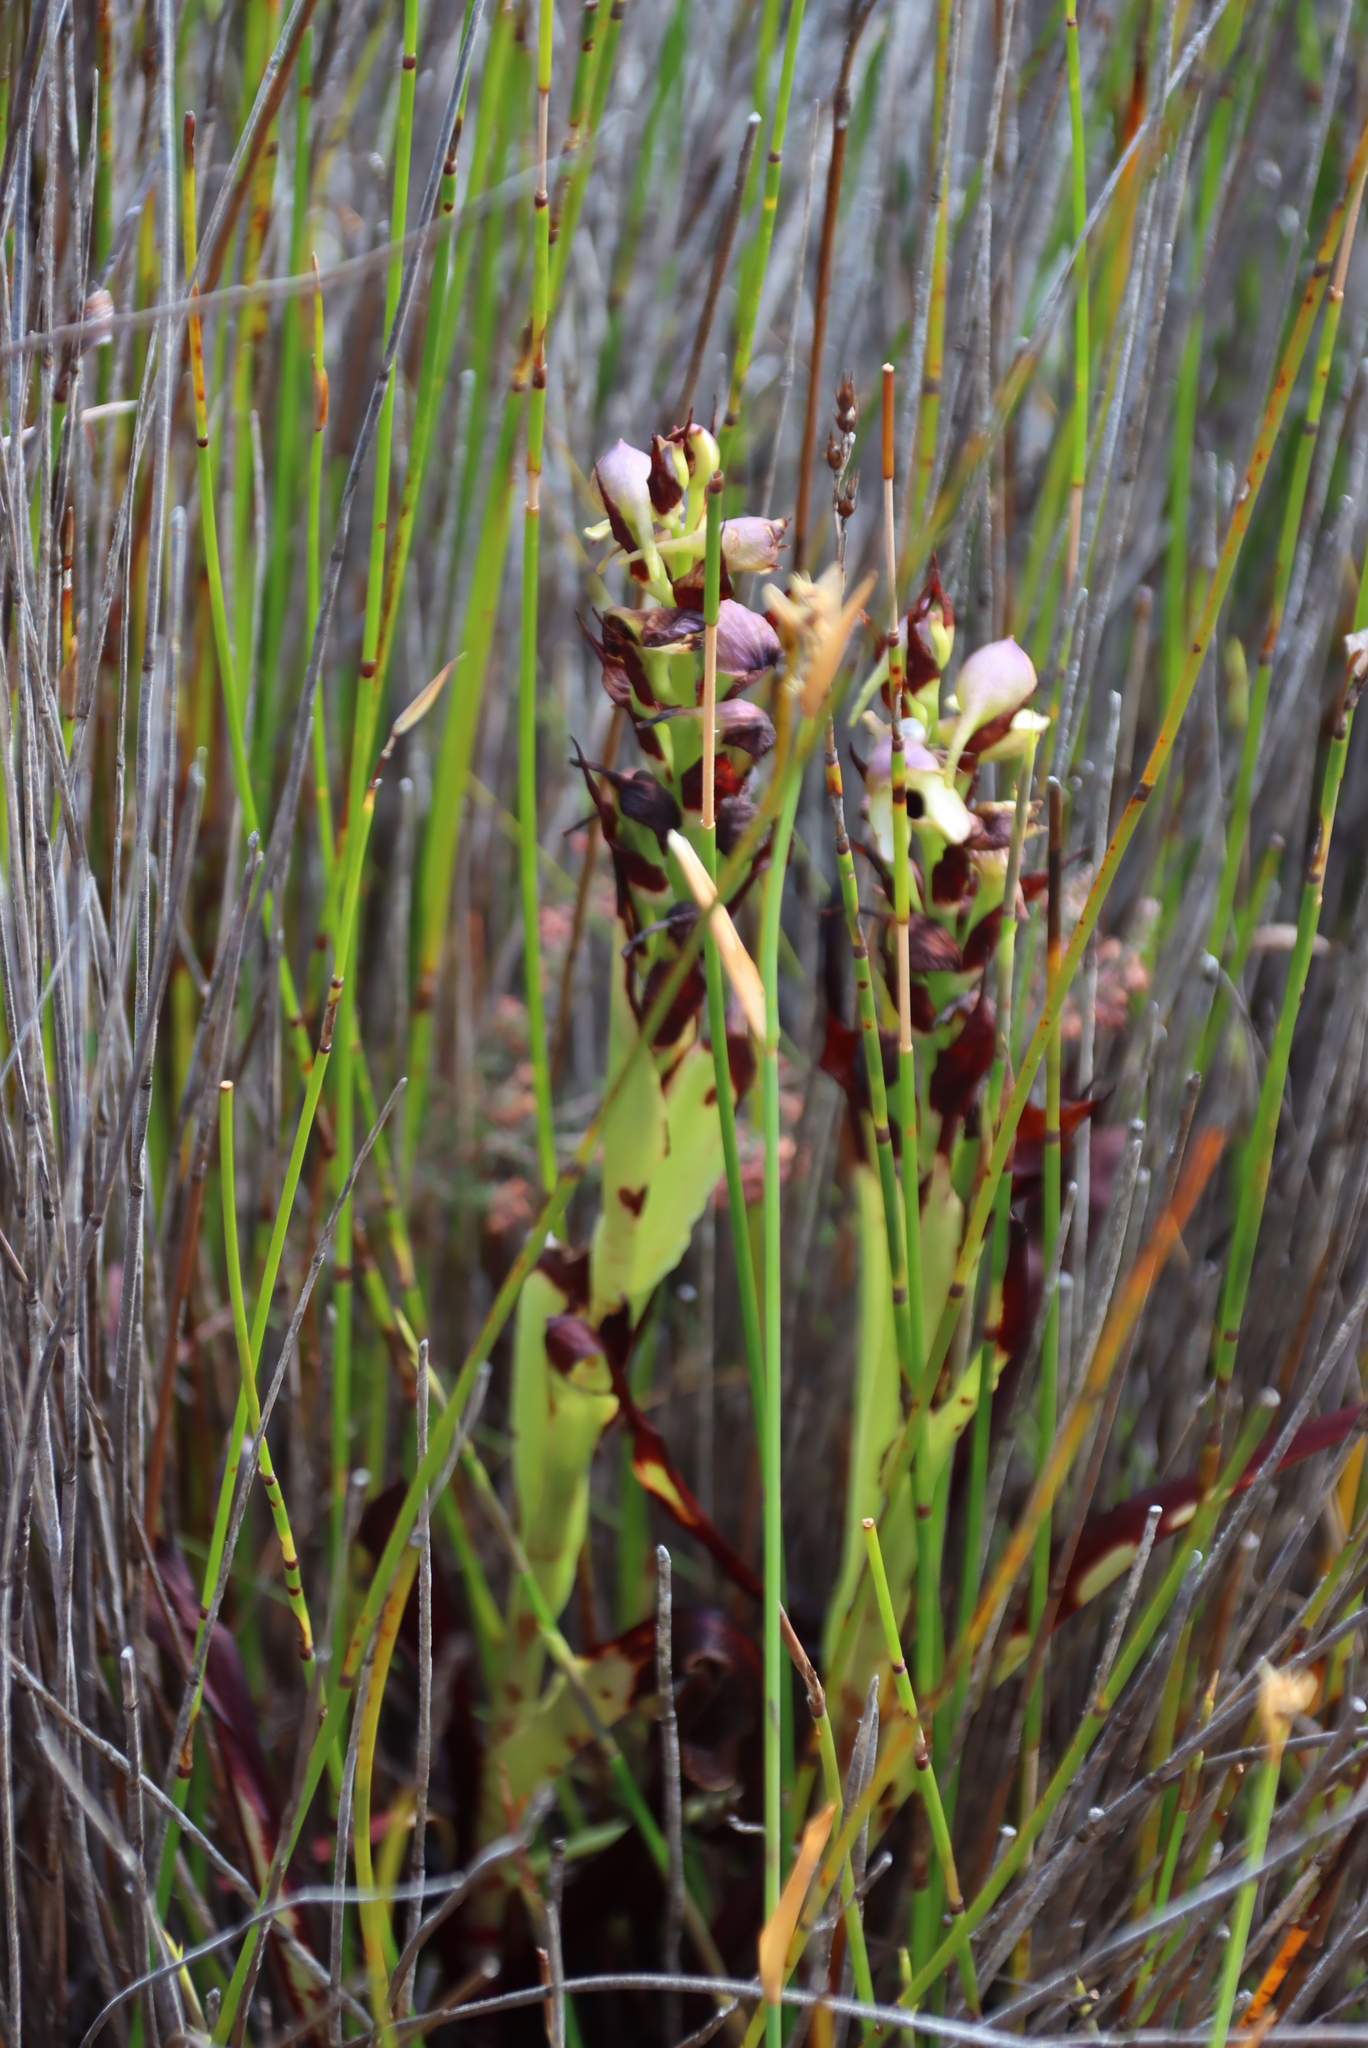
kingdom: Plantae
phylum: Tracheophyta
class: Liliopsida
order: Asparagales
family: Orchidaceae
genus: Disa
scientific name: Disa cornuta
